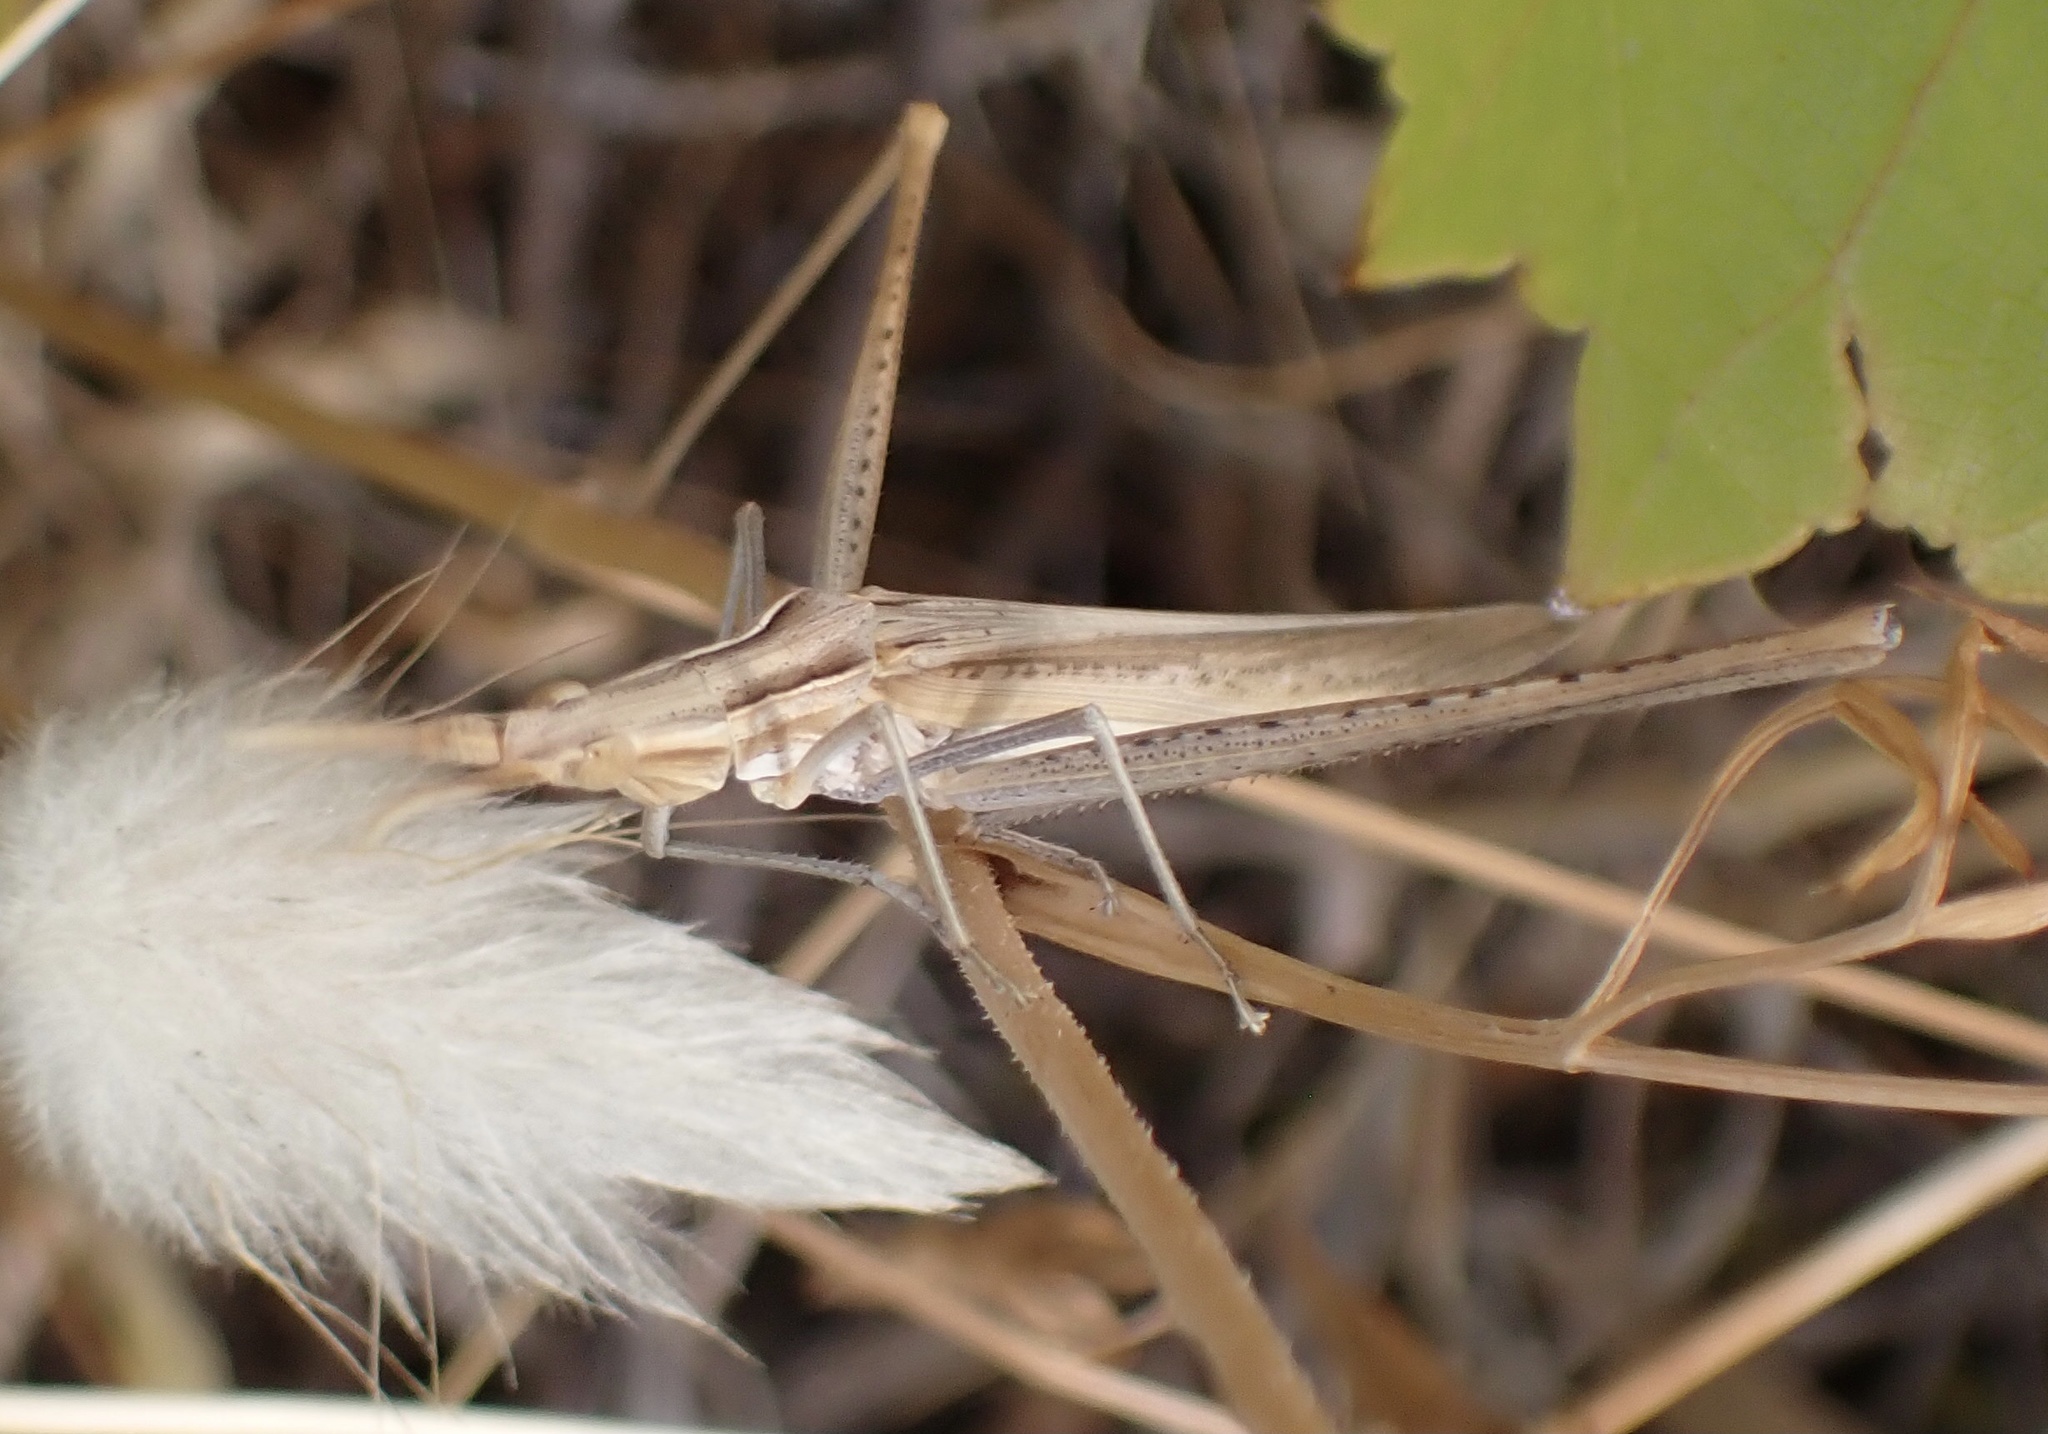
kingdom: Animalia
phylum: Arthropoda
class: Insecta
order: Orthoptera
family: Acrididae
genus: Acrida
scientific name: Acrida ungarica
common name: Common cone-headed grasshopper
